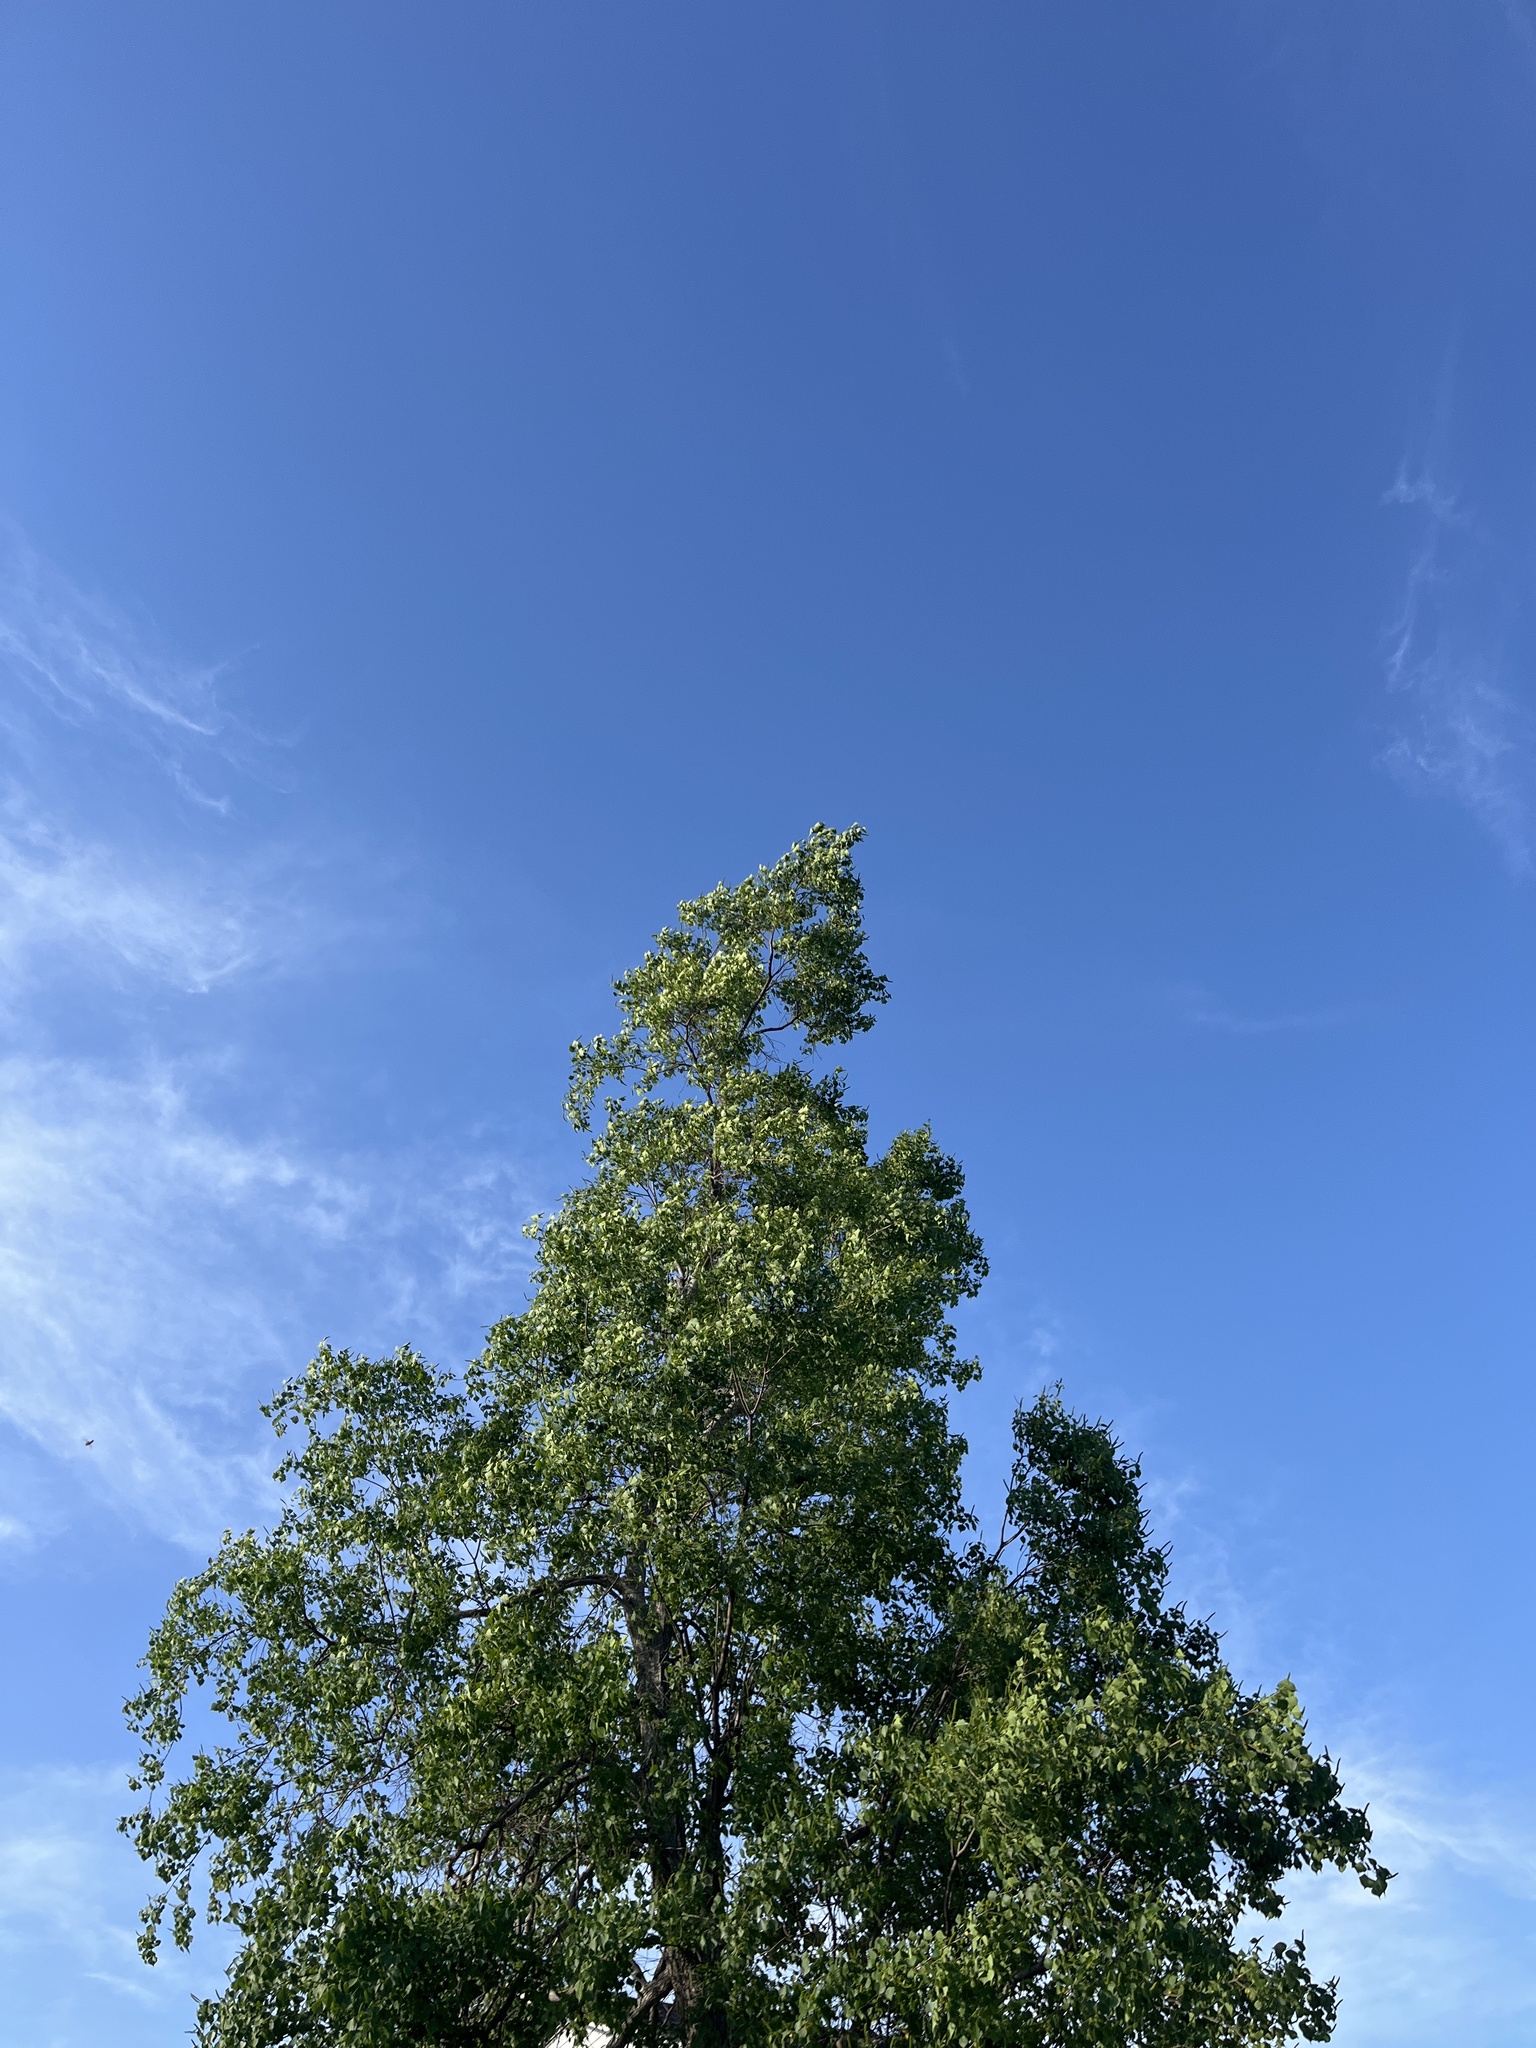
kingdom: Plantae
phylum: Tracheophyta
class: Magnoliopsida
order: Malpighiales
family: Euphorbiaceae
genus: Triadica
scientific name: Triadica sebifera
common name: Chinese tallow
